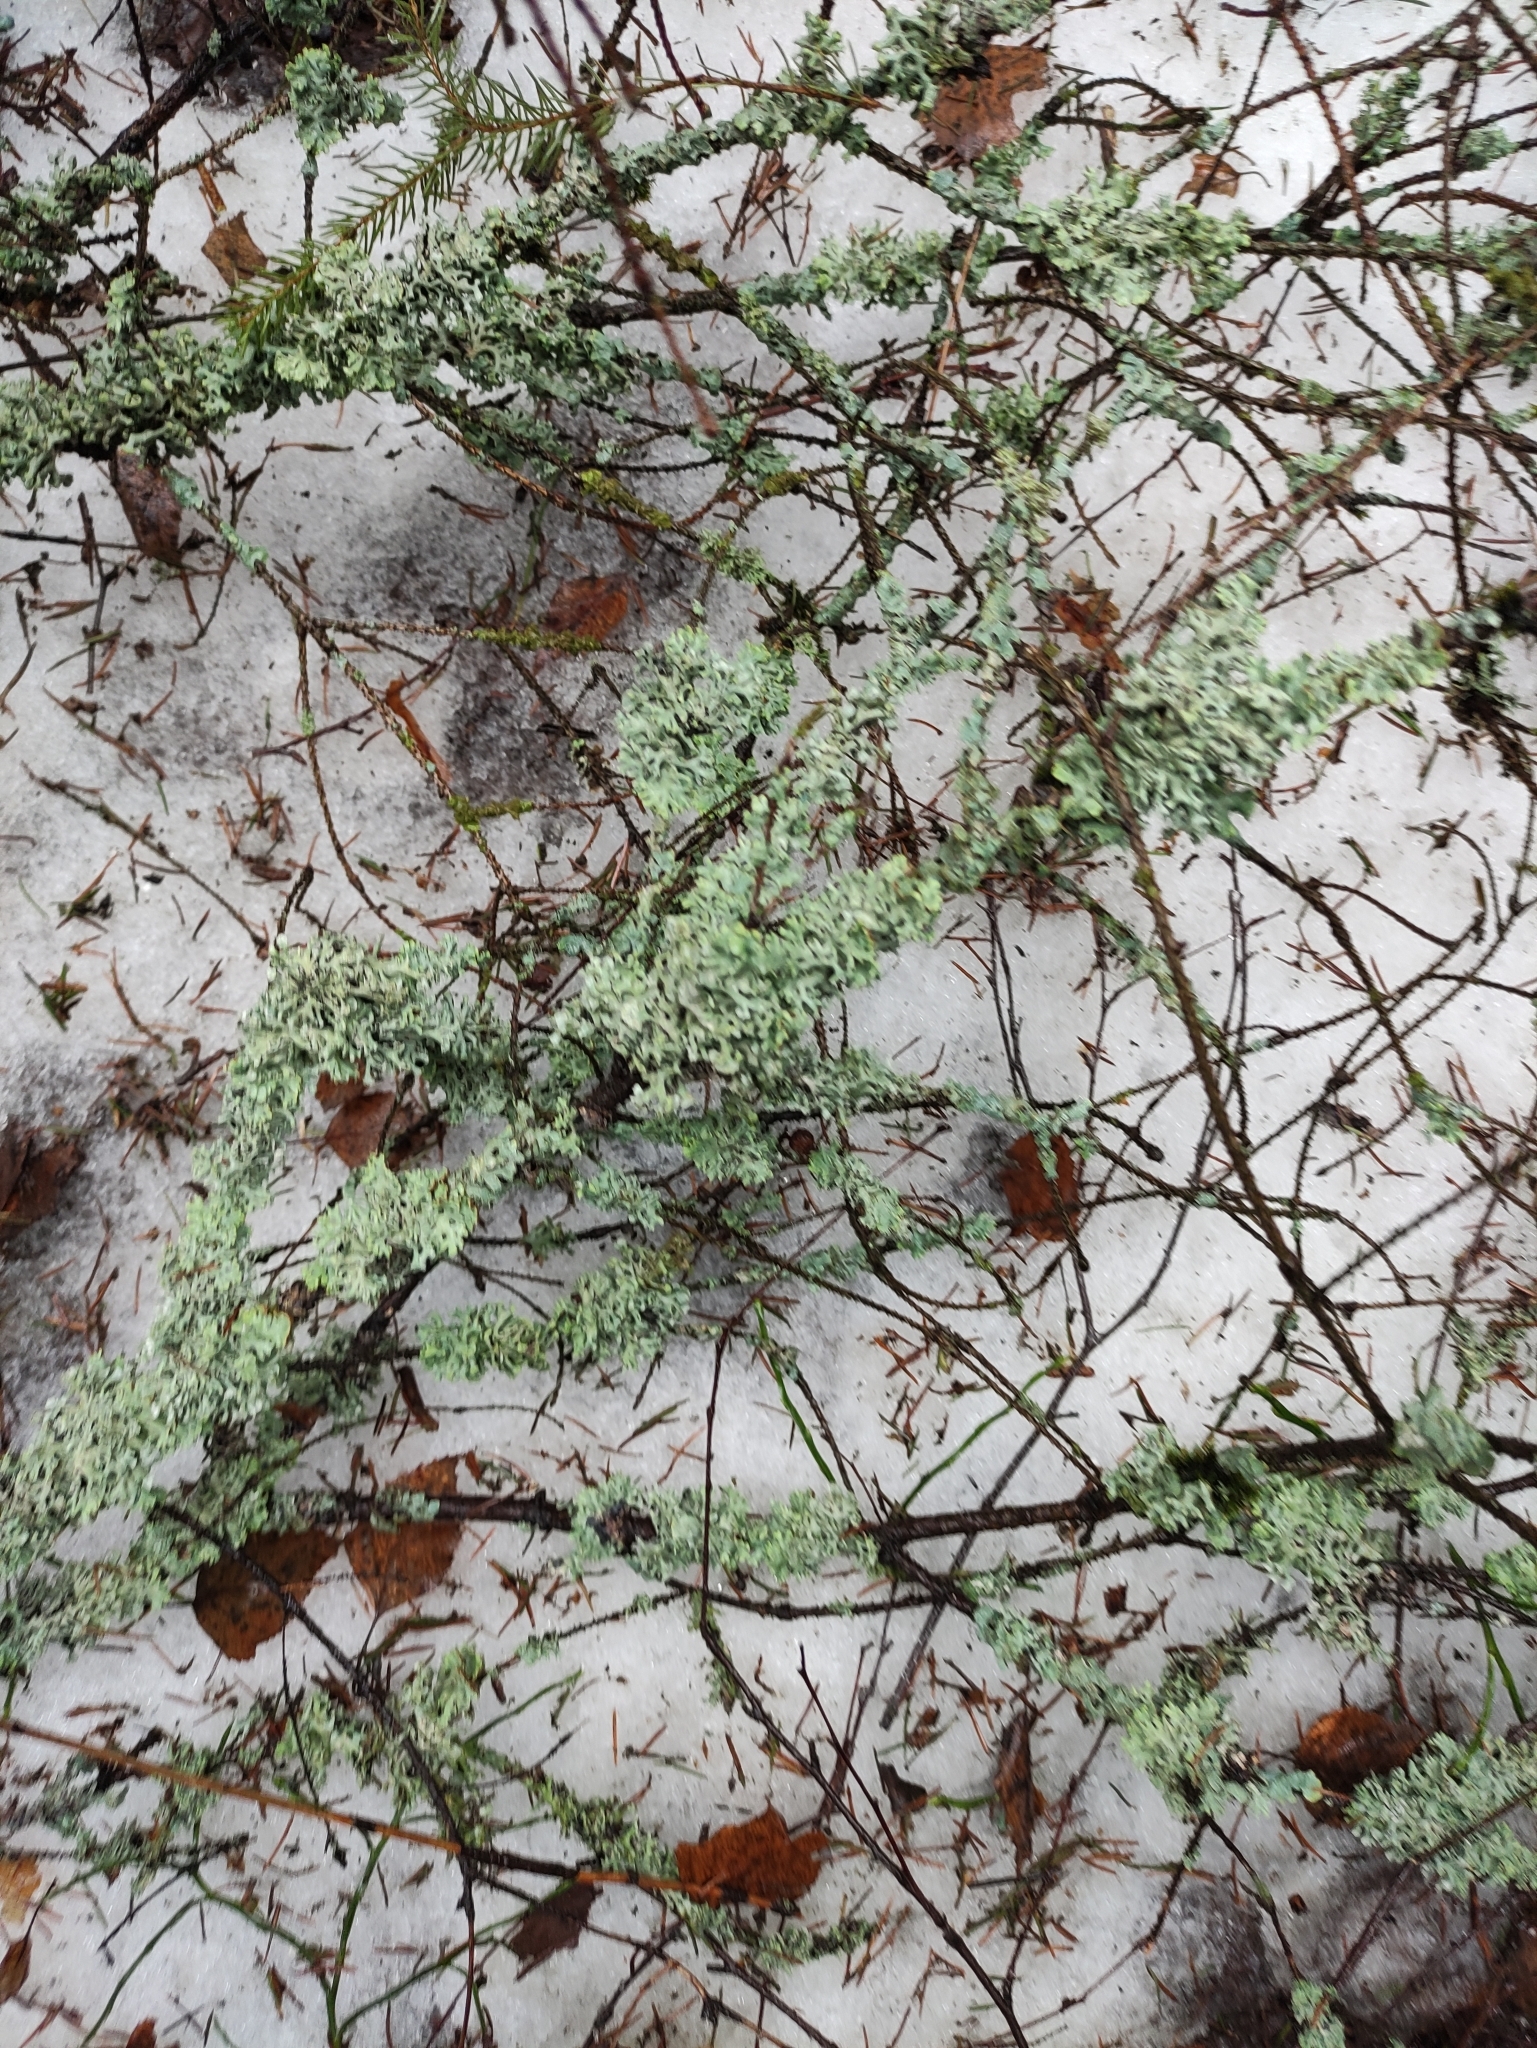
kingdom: Fungi
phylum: Ascomycota
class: Lecanoromycetes
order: Lecanorales
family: Parmeliaceae
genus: Hypogymnia
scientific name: Hypogymnia physodes
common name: Dark crottle
